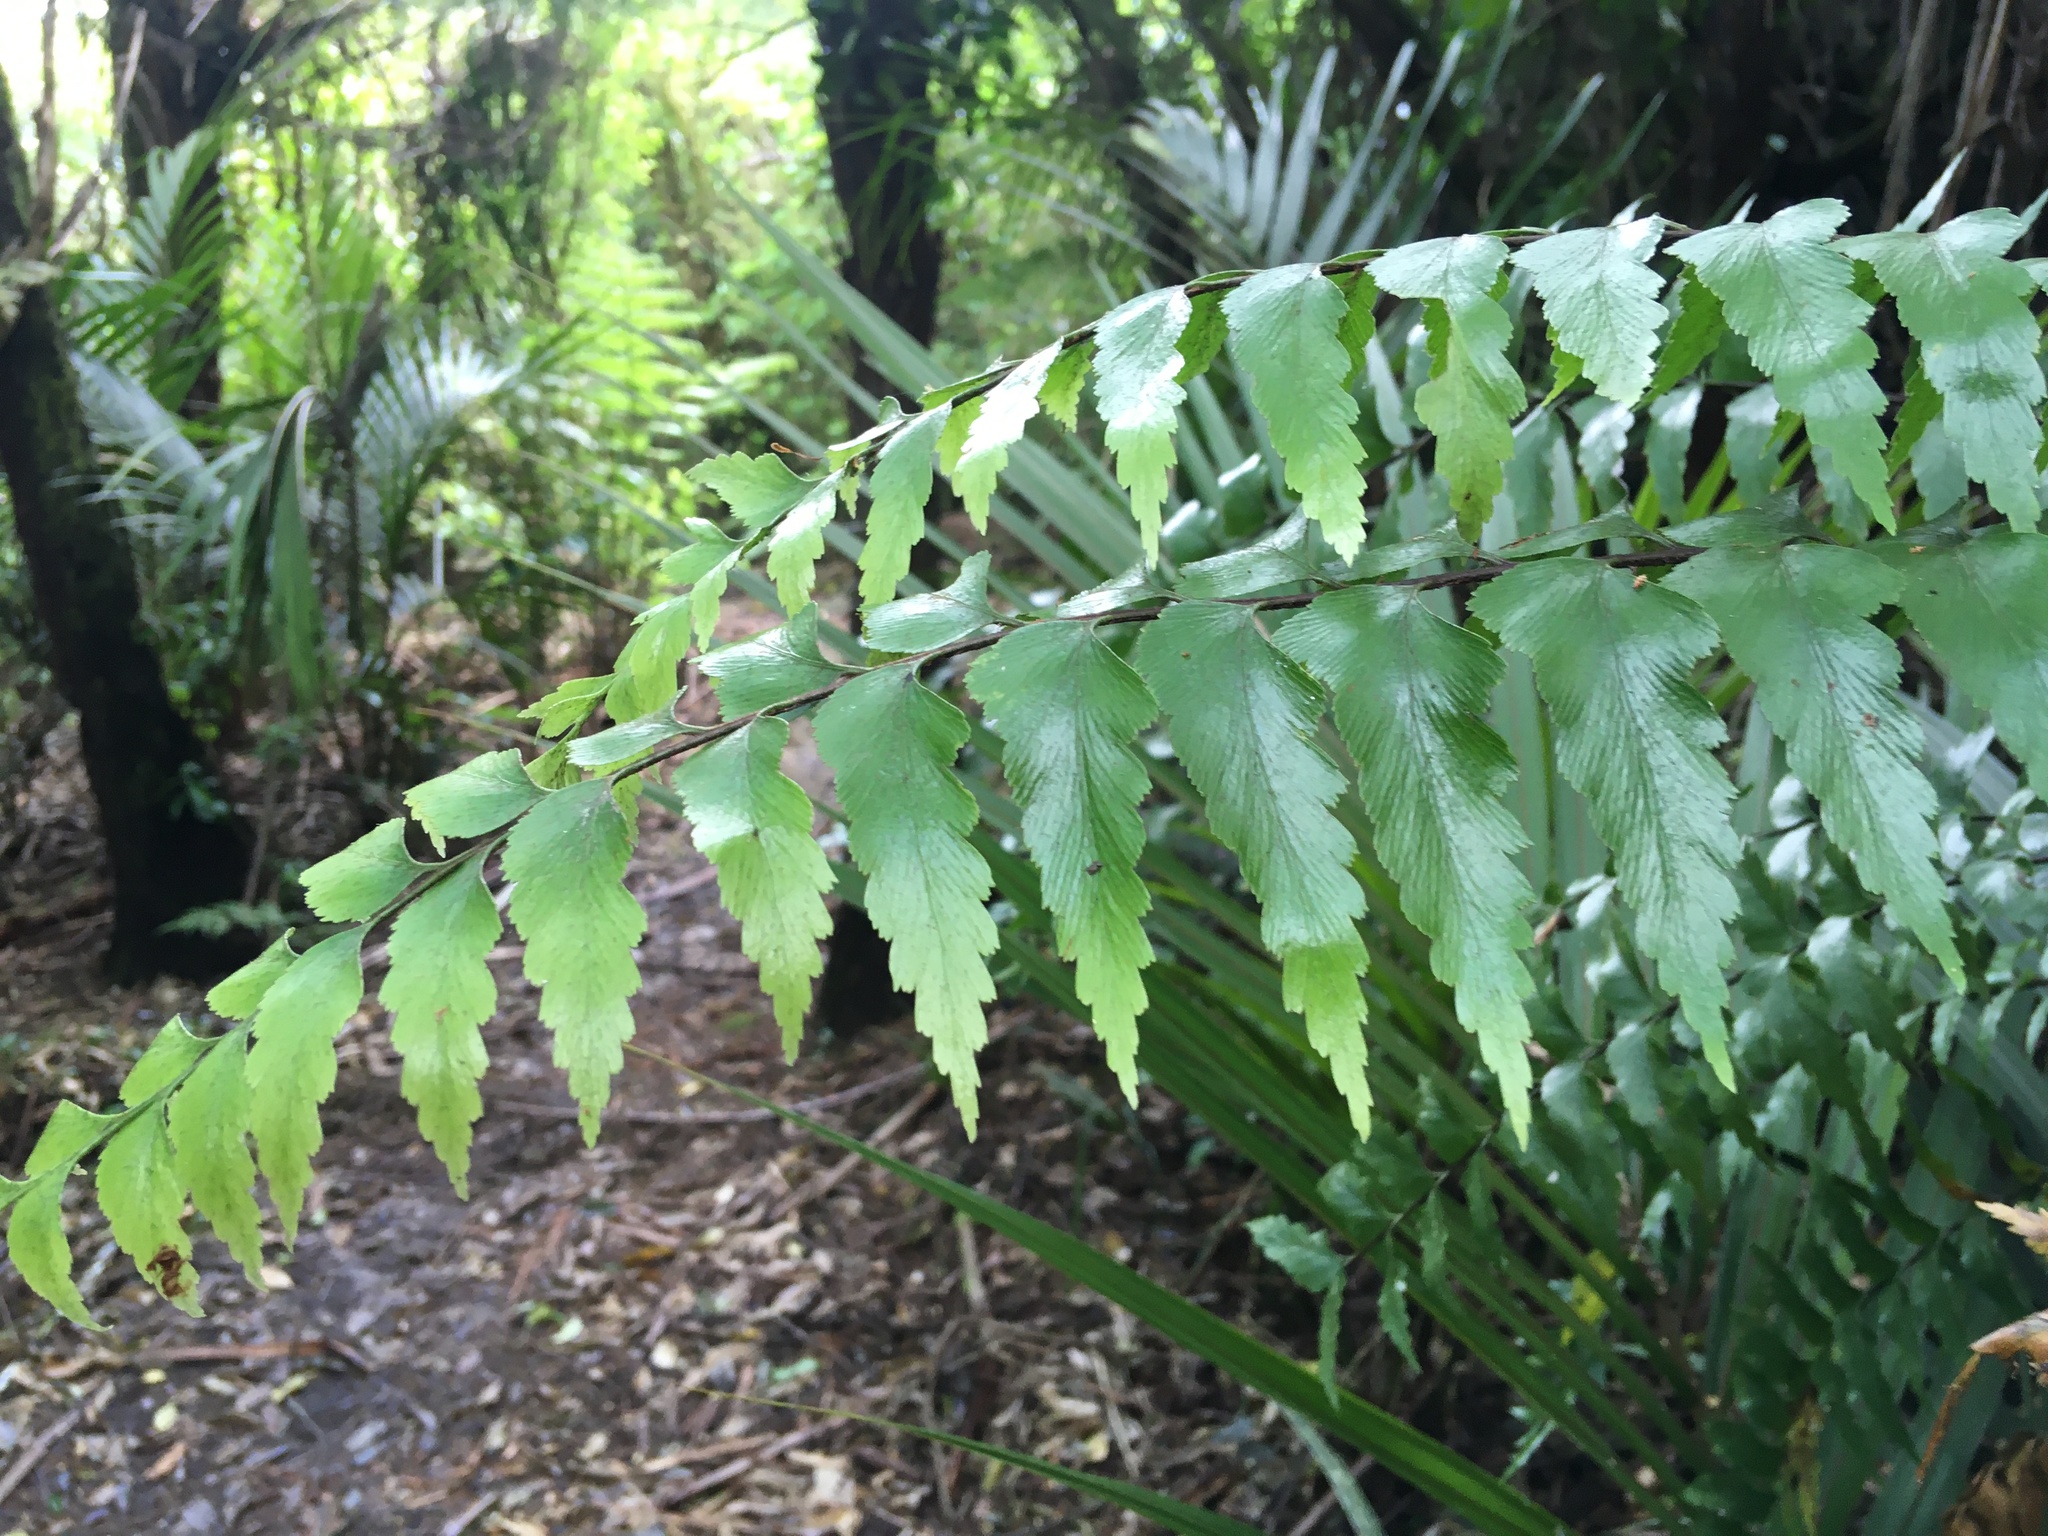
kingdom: Plantae
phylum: Tracheophyta
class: Polypodiopsida
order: Polypodiales
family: Aspleniaceae
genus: Asplenium
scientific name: Asplenium polyodon
